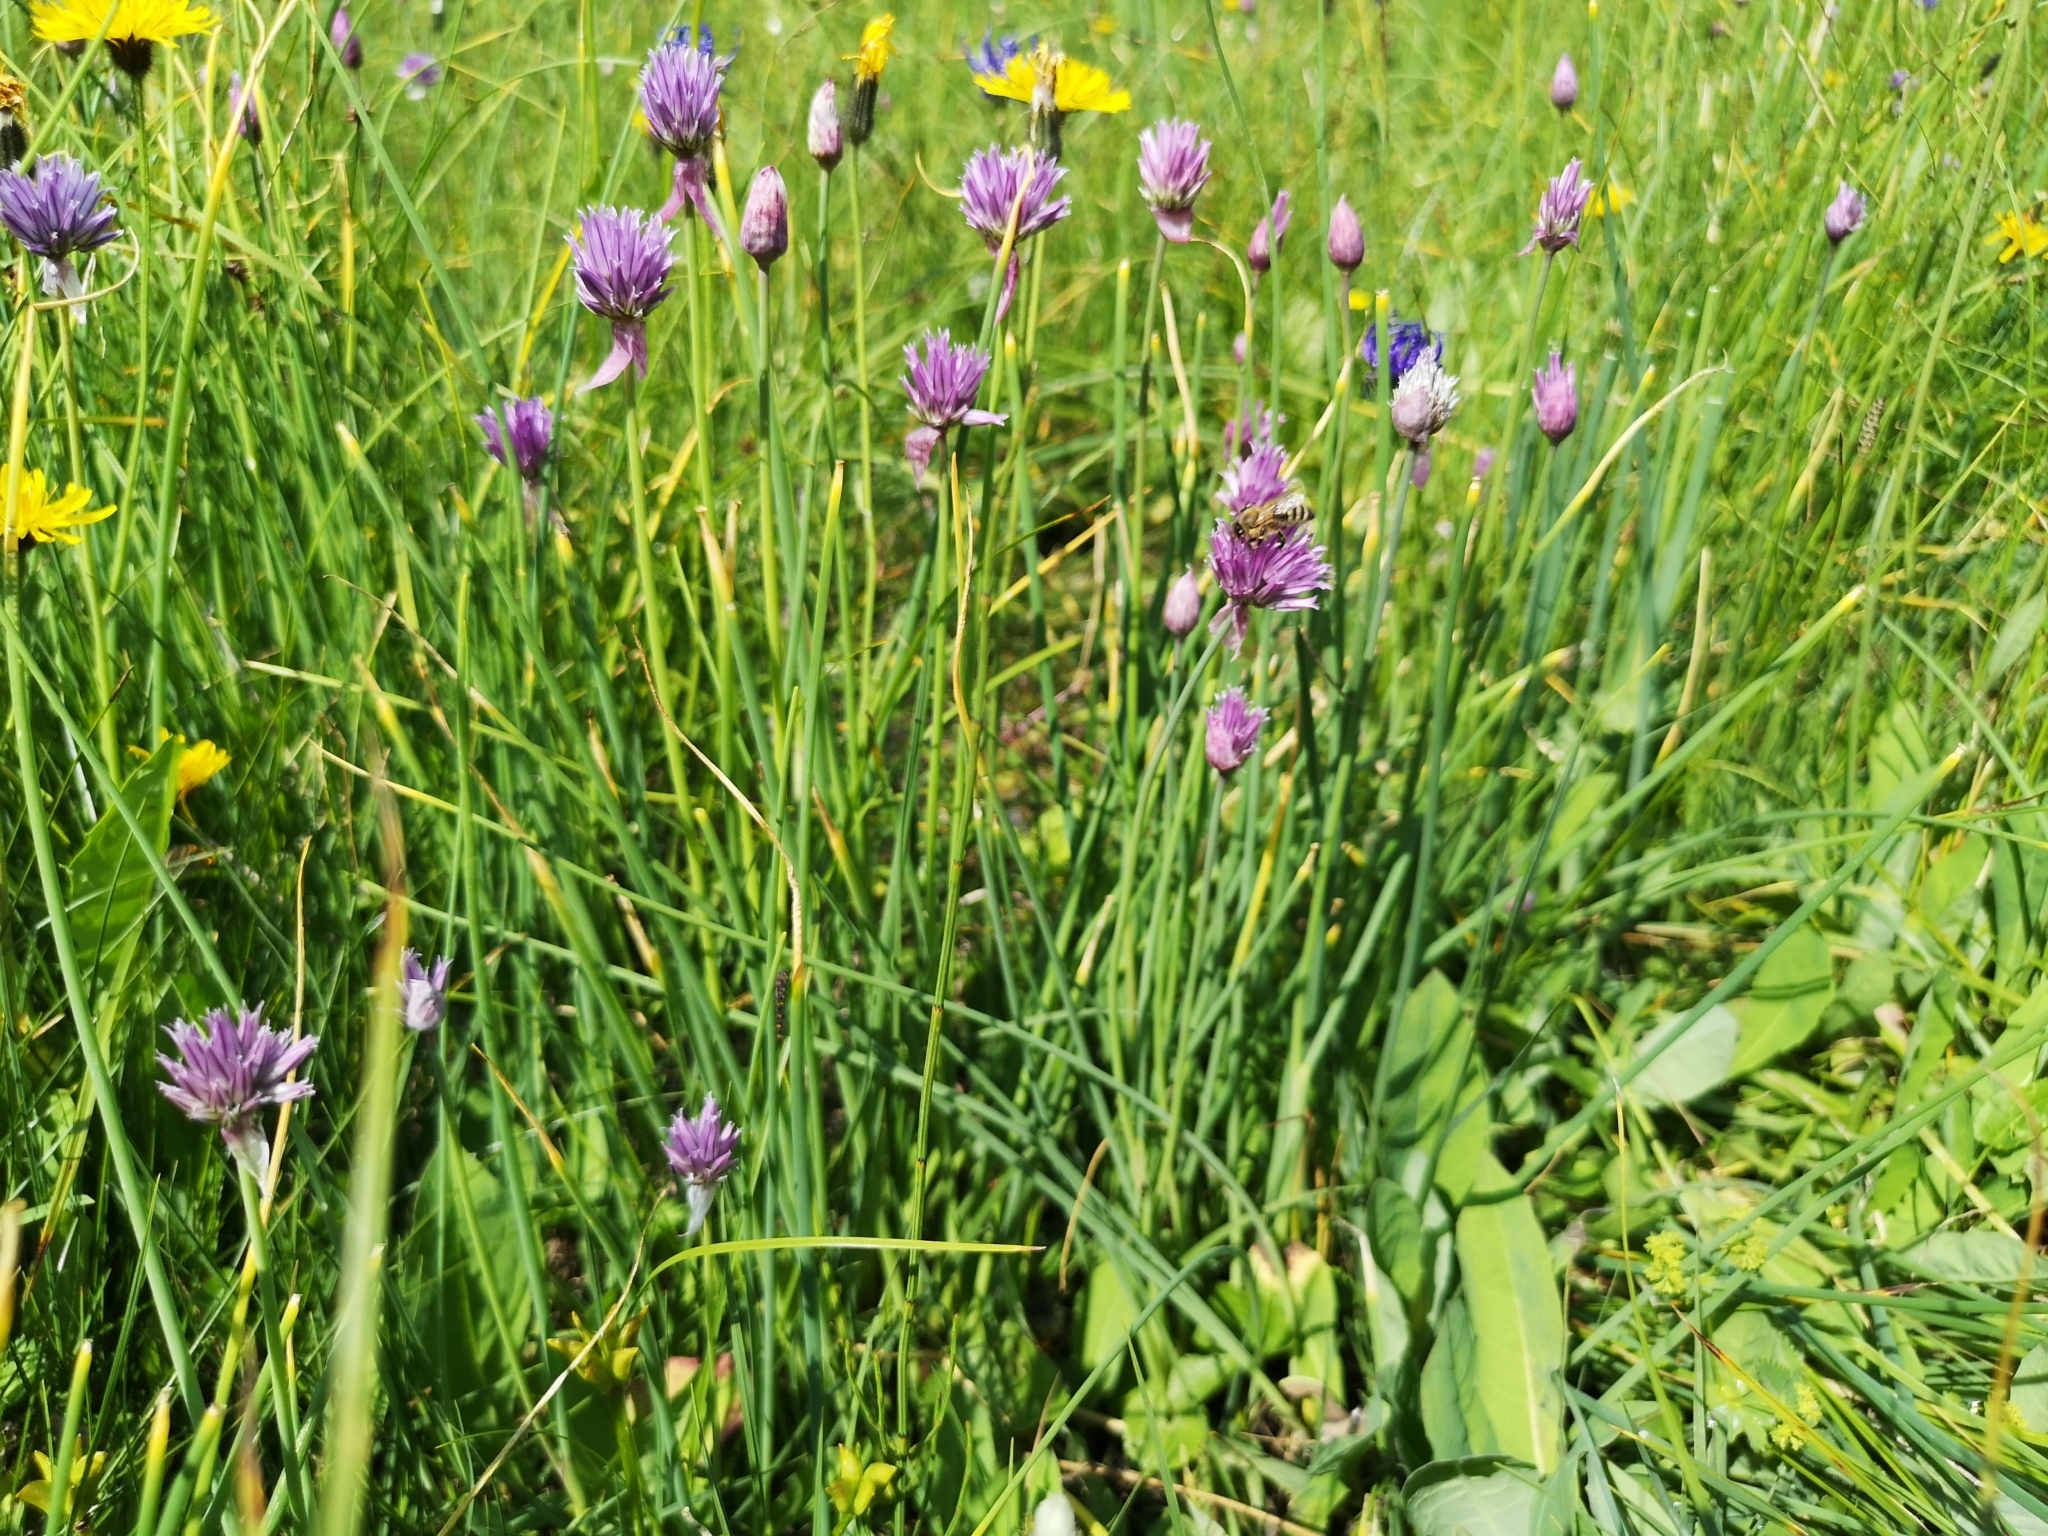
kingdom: Plantae
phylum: Tracheophyta
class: Liliopsida
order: Asparagales
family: Amaryllidaceae
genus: Allium
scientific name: Allium schoenoprasum
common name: Chives
